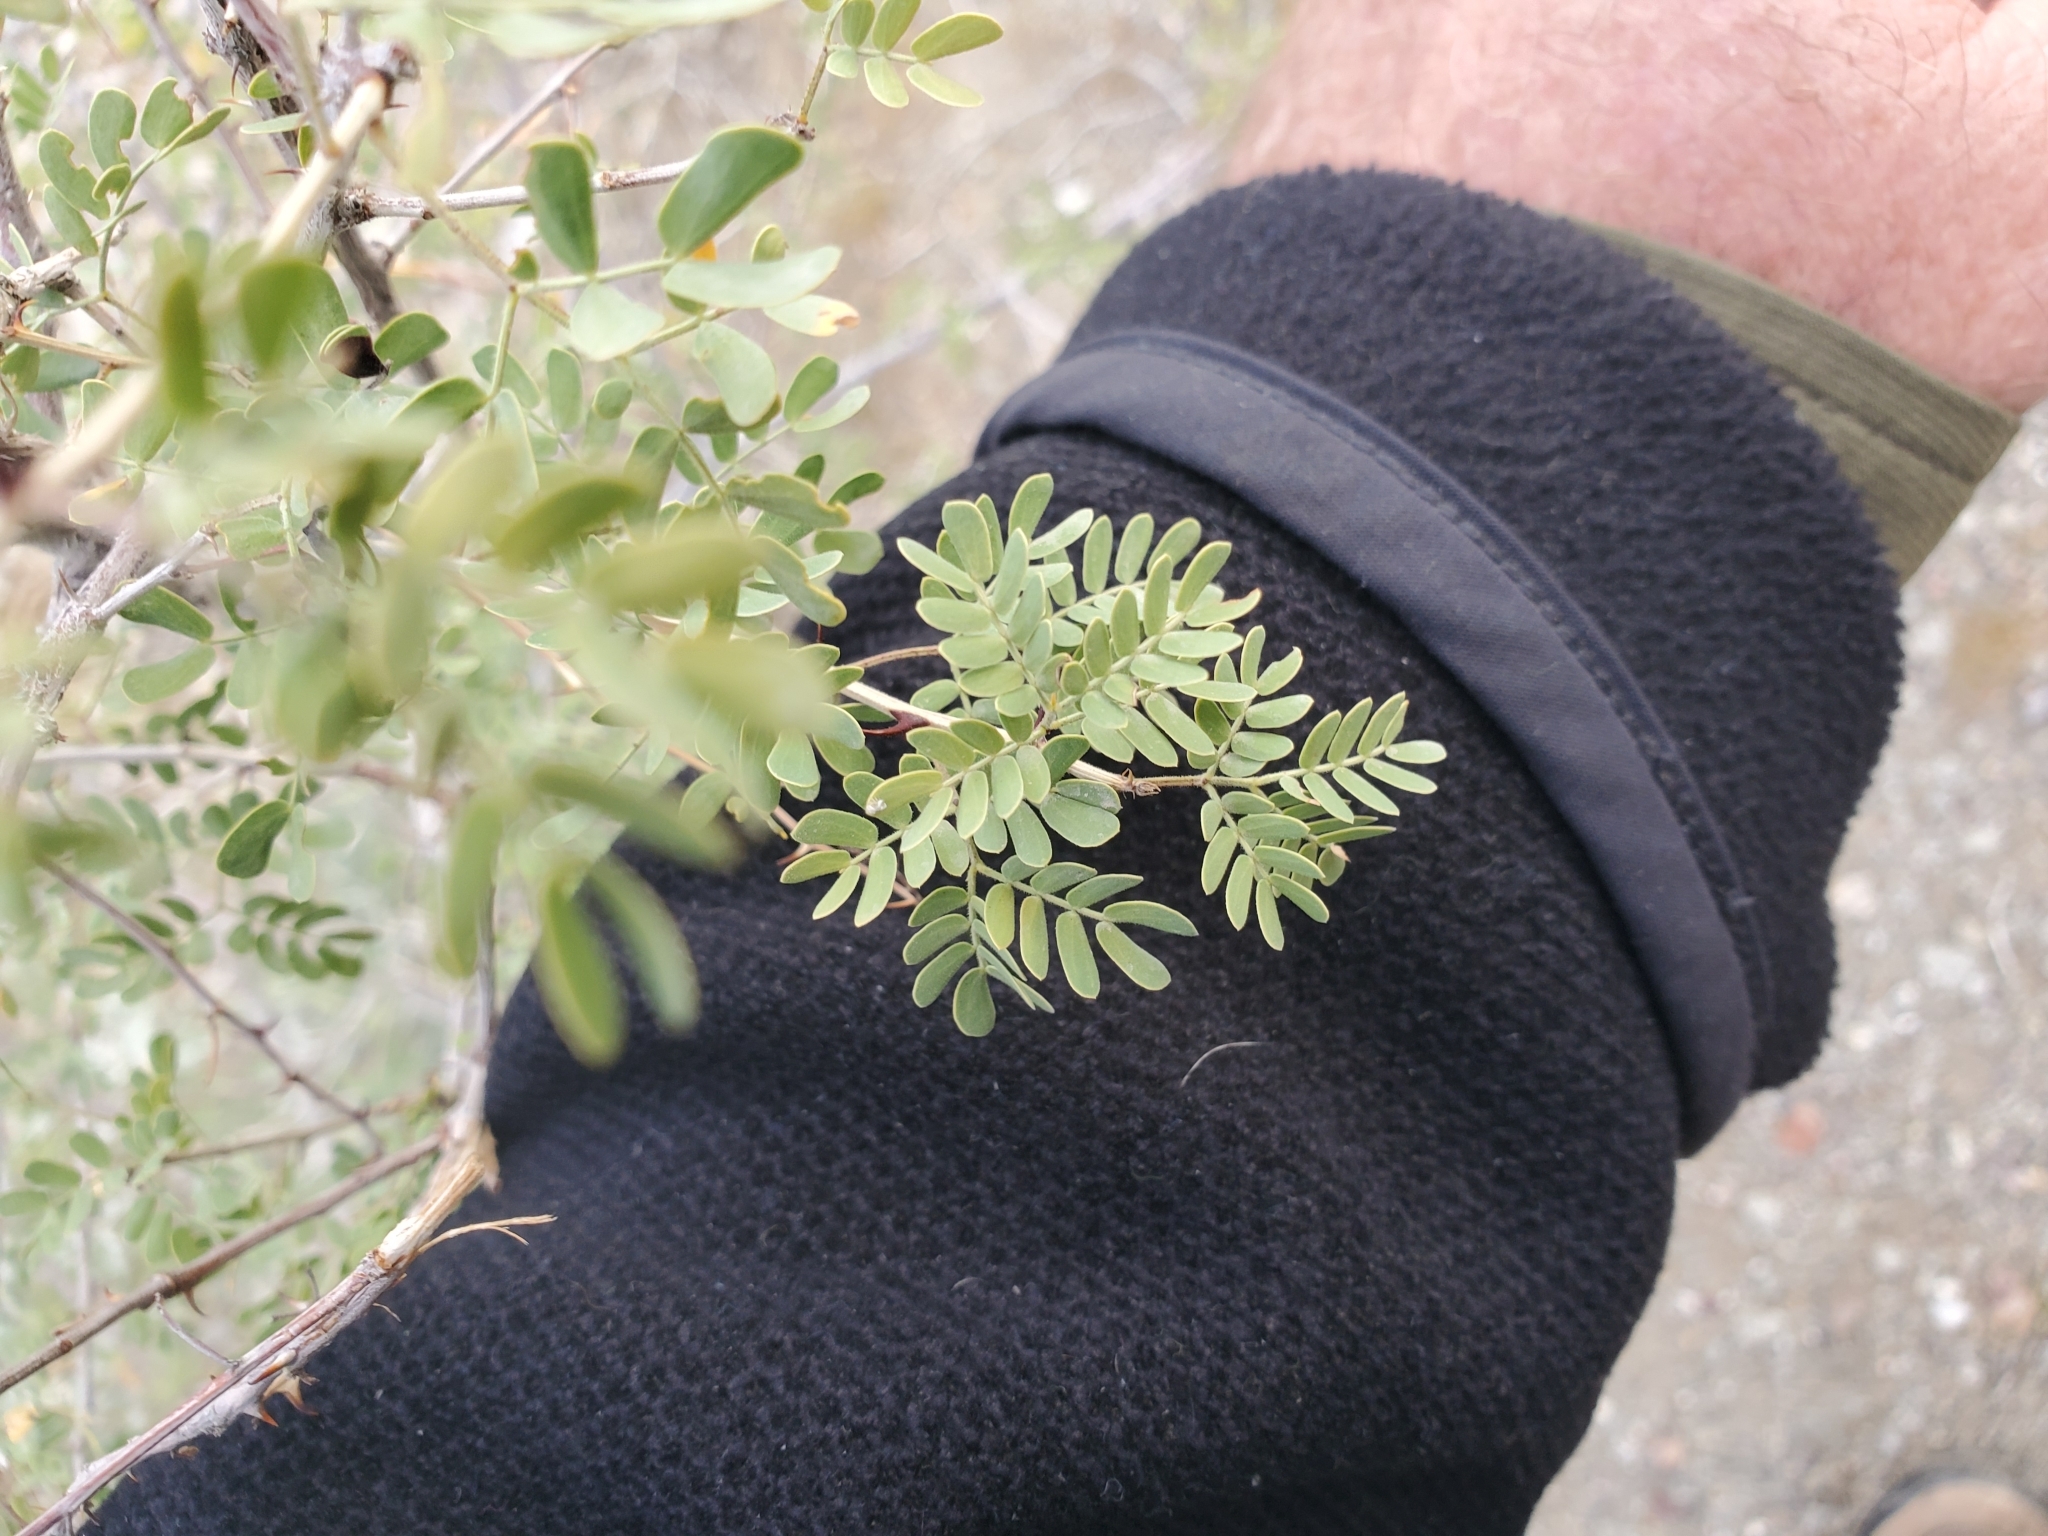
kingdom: Plantae
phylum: Tracheophyta
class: Magnoliopsida
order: Fabales
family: Fabaceae
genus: Senegalia
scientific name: Senegalia greggii
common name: Texas-mimosa
